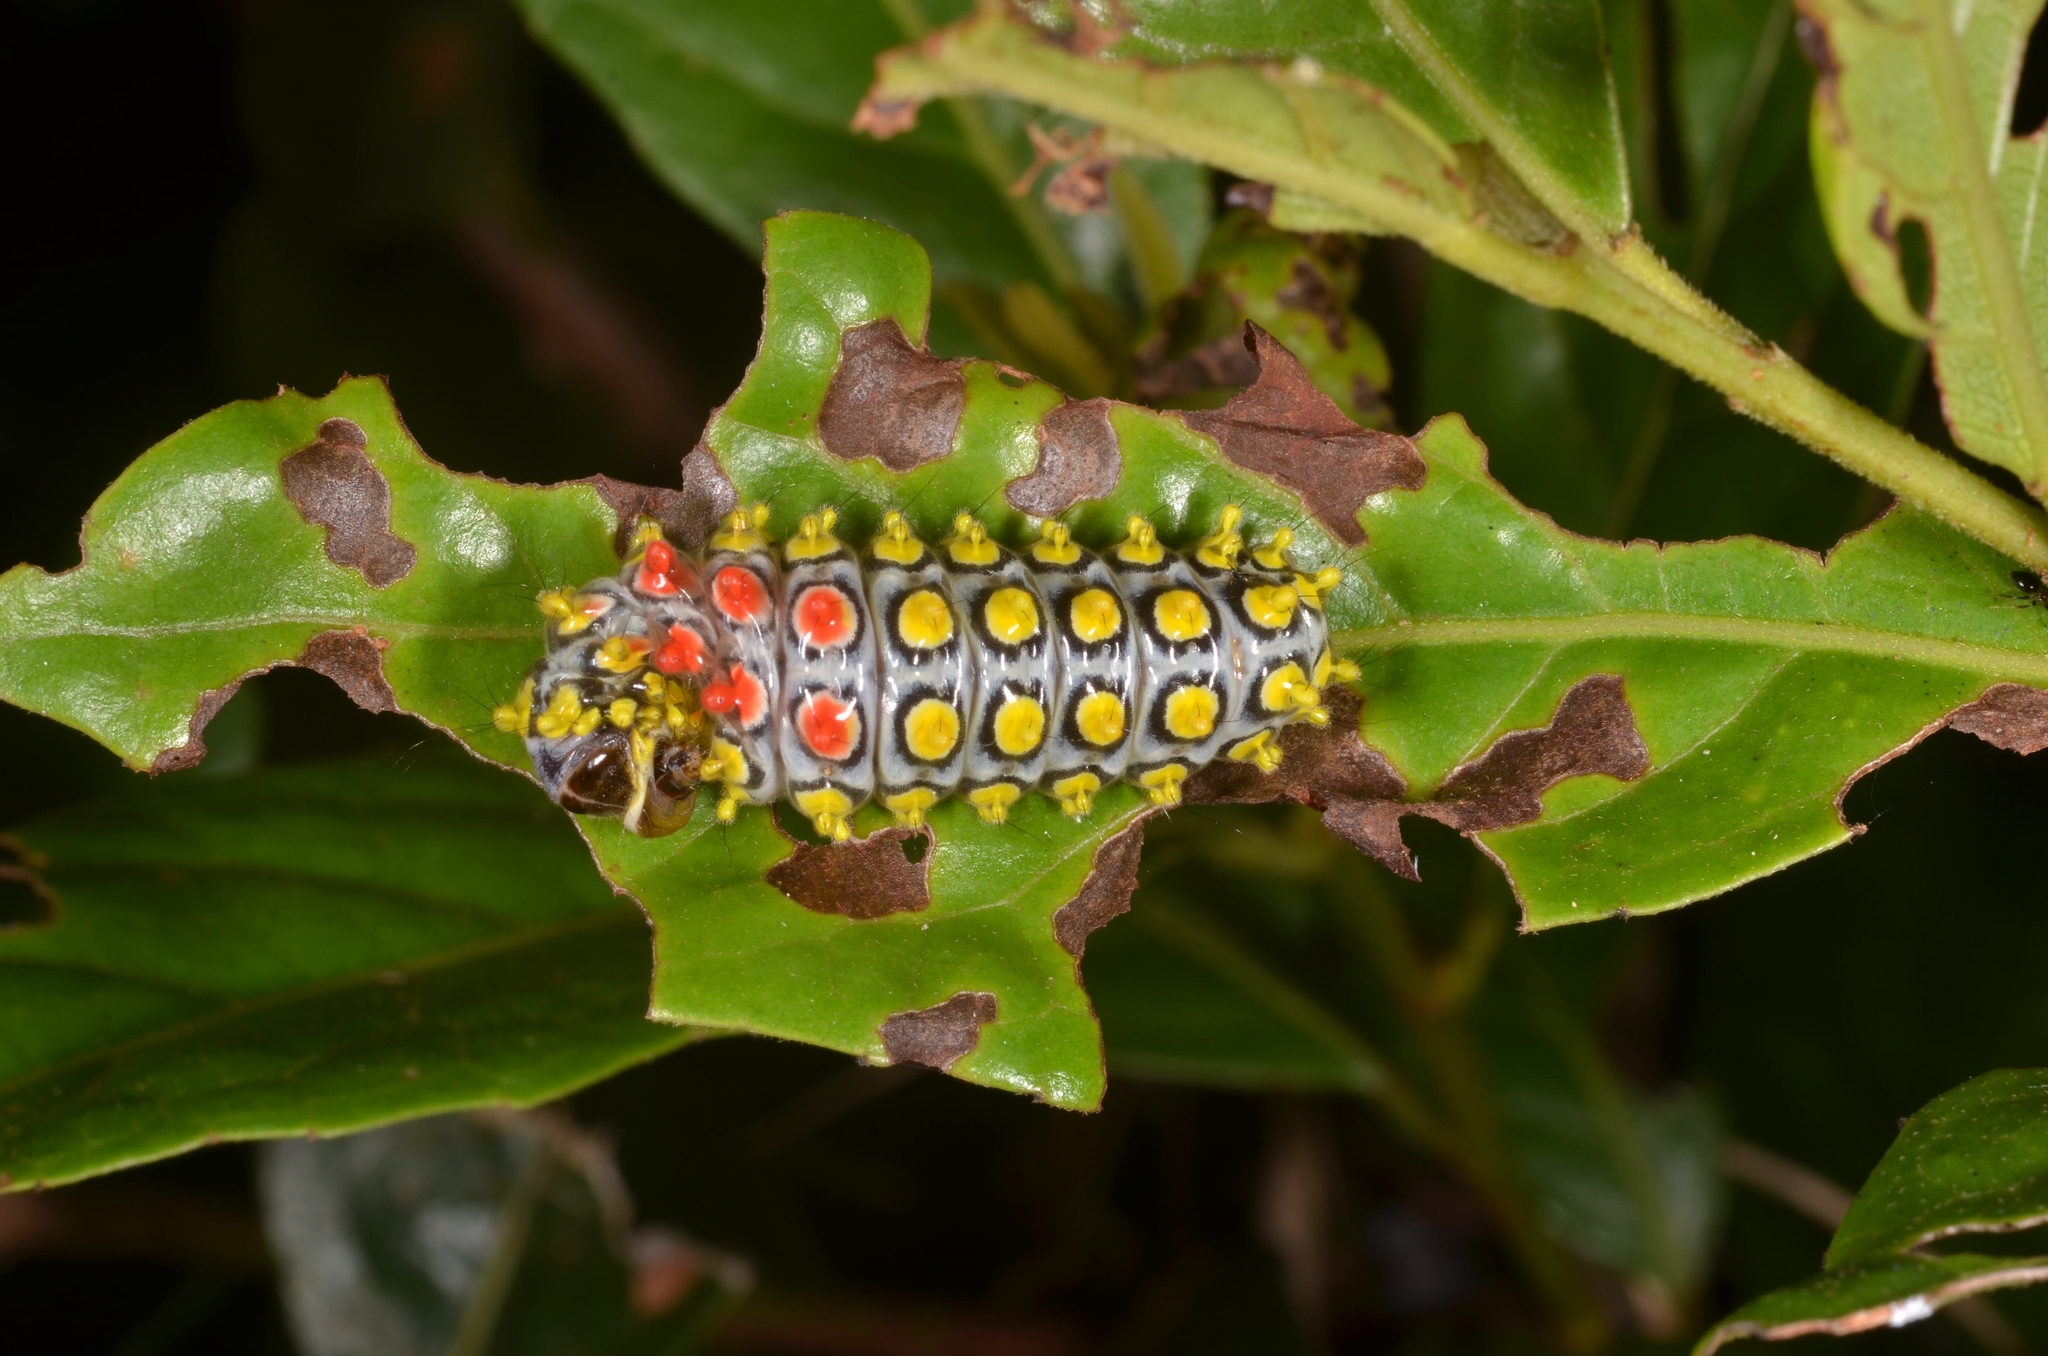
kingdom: Animalia
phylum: Arthropoda
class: Insecta
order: Lepidoptera
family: Zygaenidae
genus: Cyclosia
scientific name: Cyclosia papilionaris
